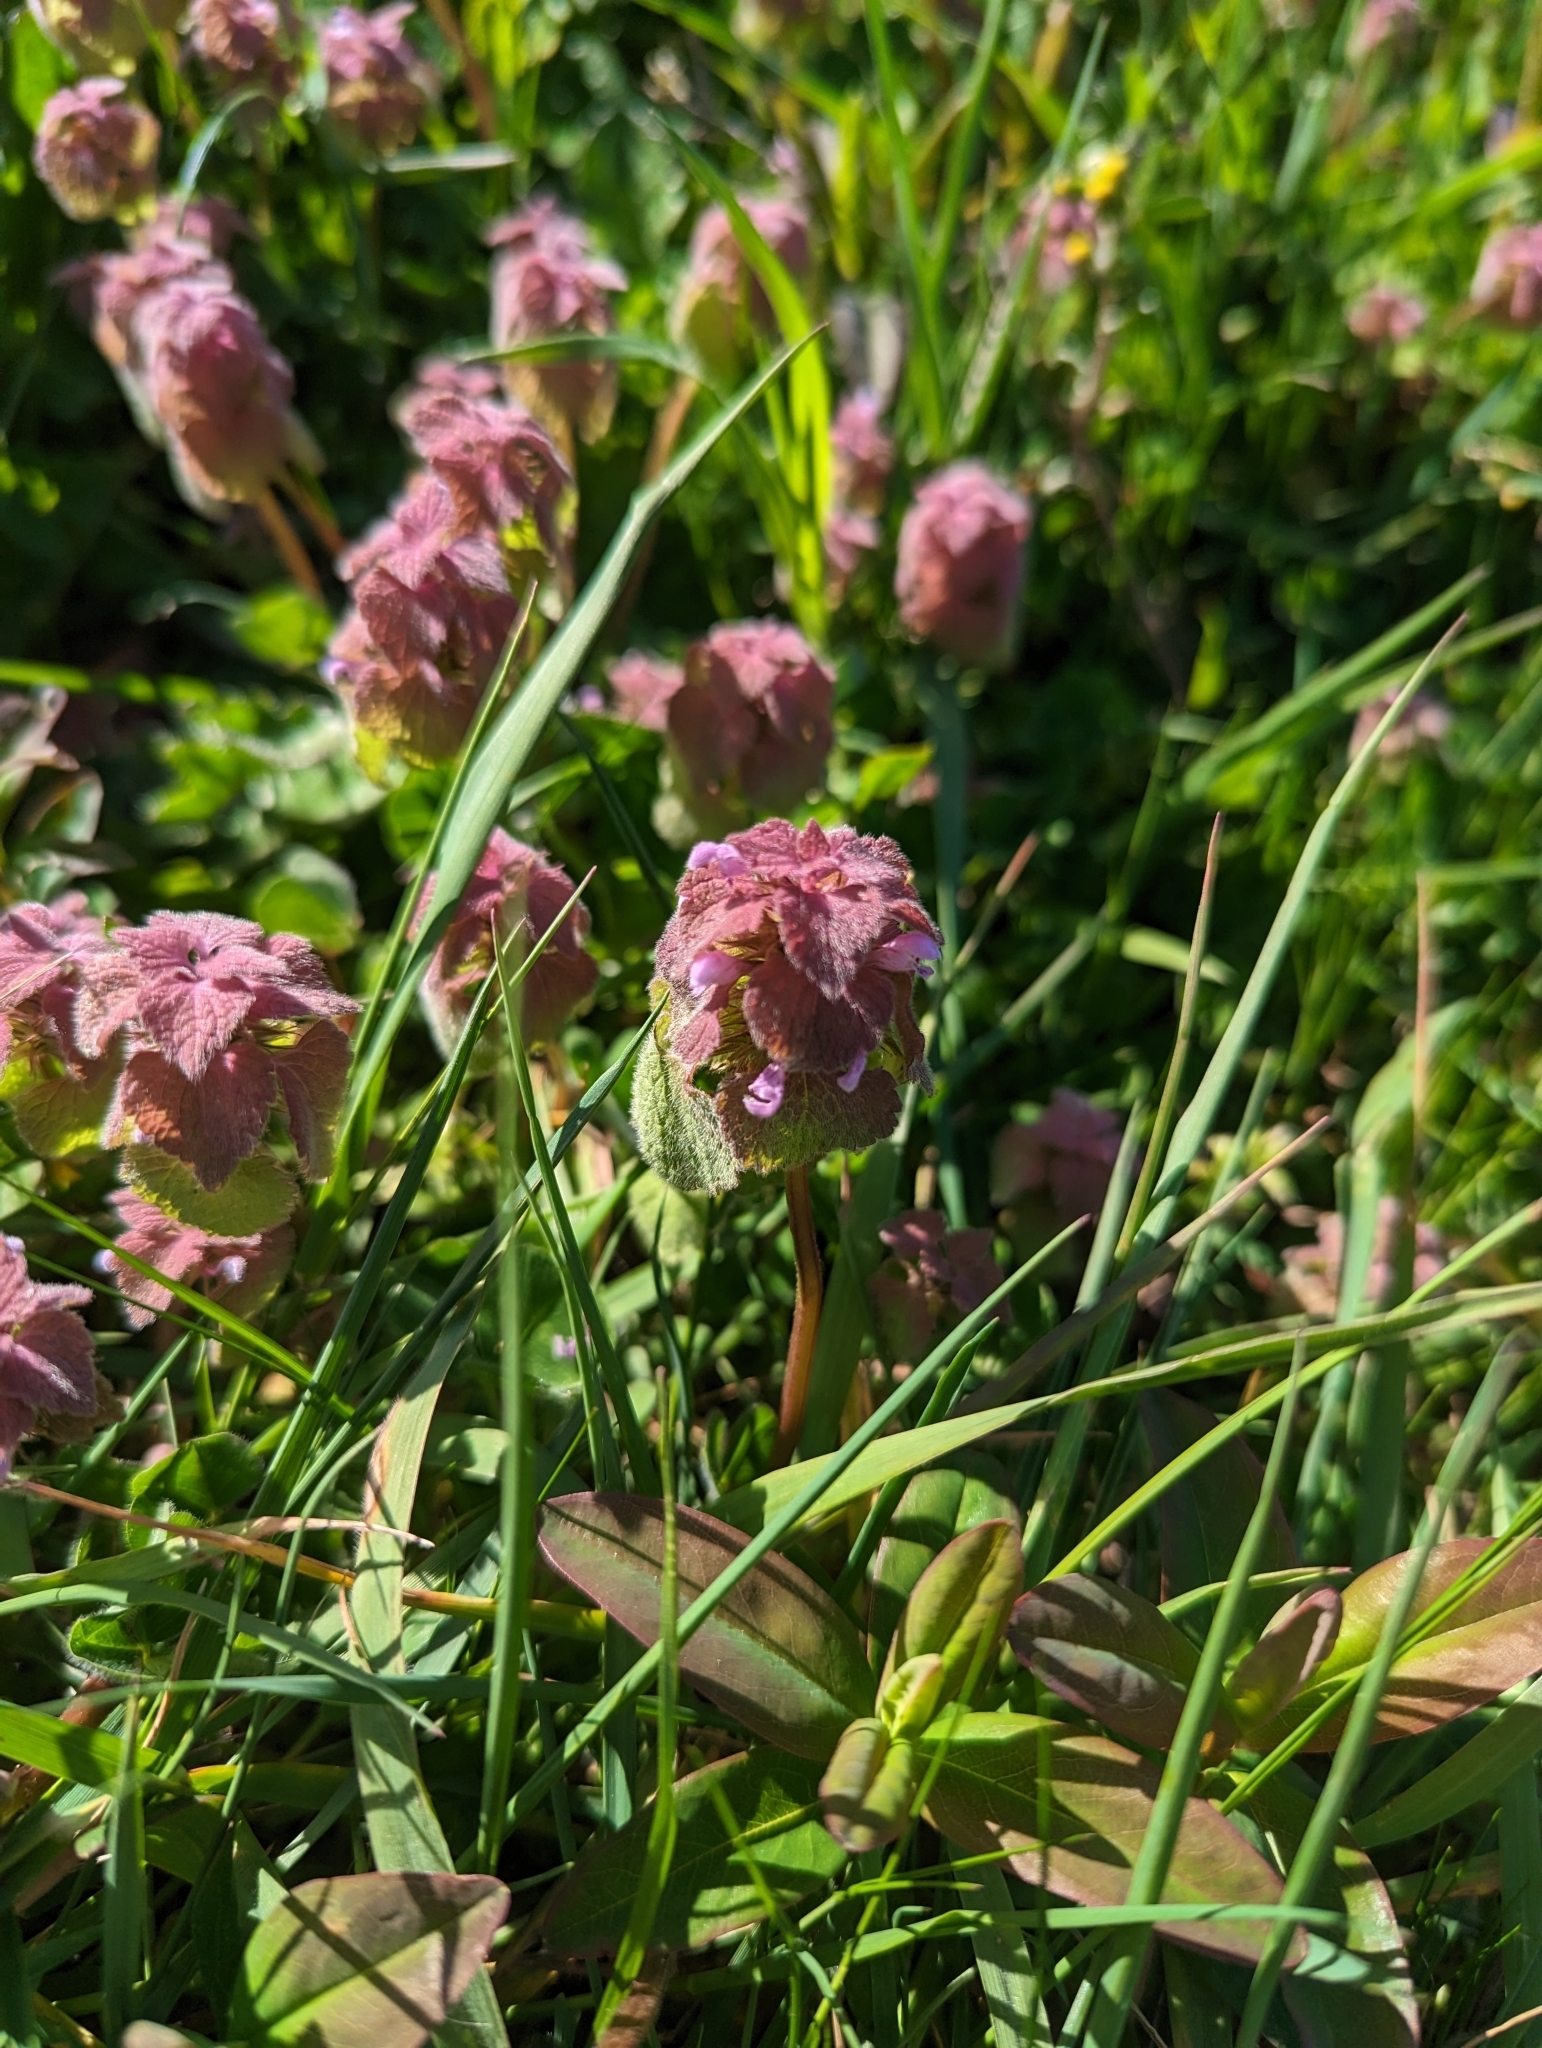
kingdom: Plantae
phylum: Tracheophyta
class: Magnoliopsida
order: Lamiales
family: Lamiaceae
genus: Lamium
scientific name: Lamium purpureum
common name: Red dead-nettle
